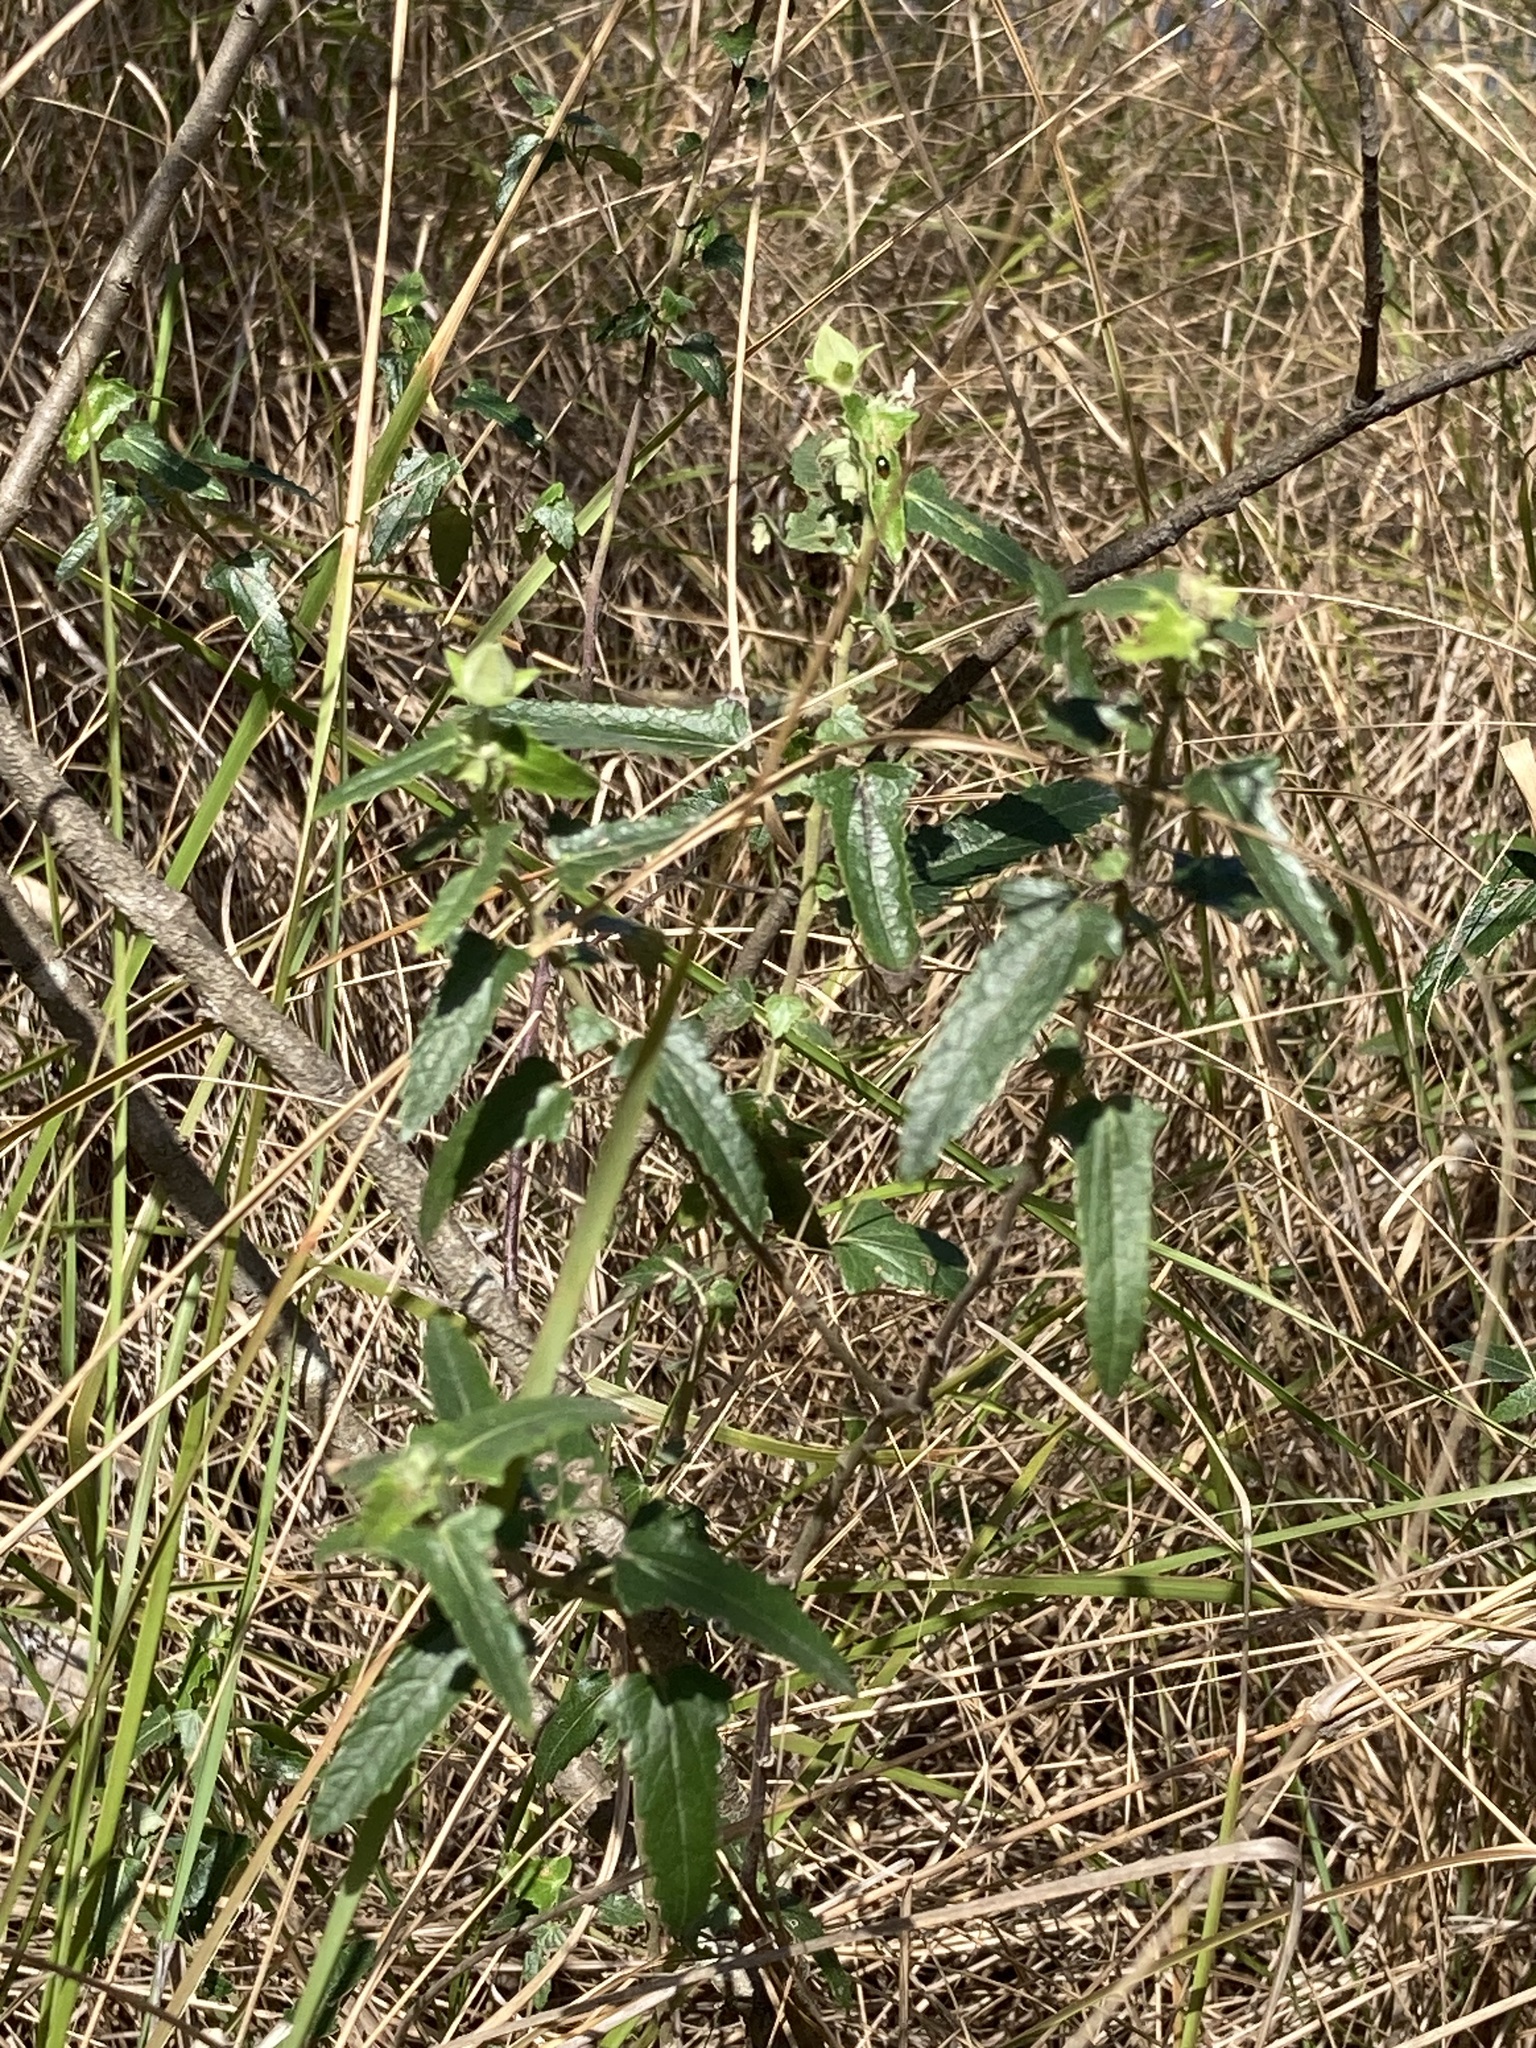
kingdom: Plantae
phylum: Tracheophyta
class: Magnoliopsida
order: Malvales
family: Malvaceae
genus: Pavonia
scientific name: Pavonia hastata
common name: Spearleaf swampmallow
